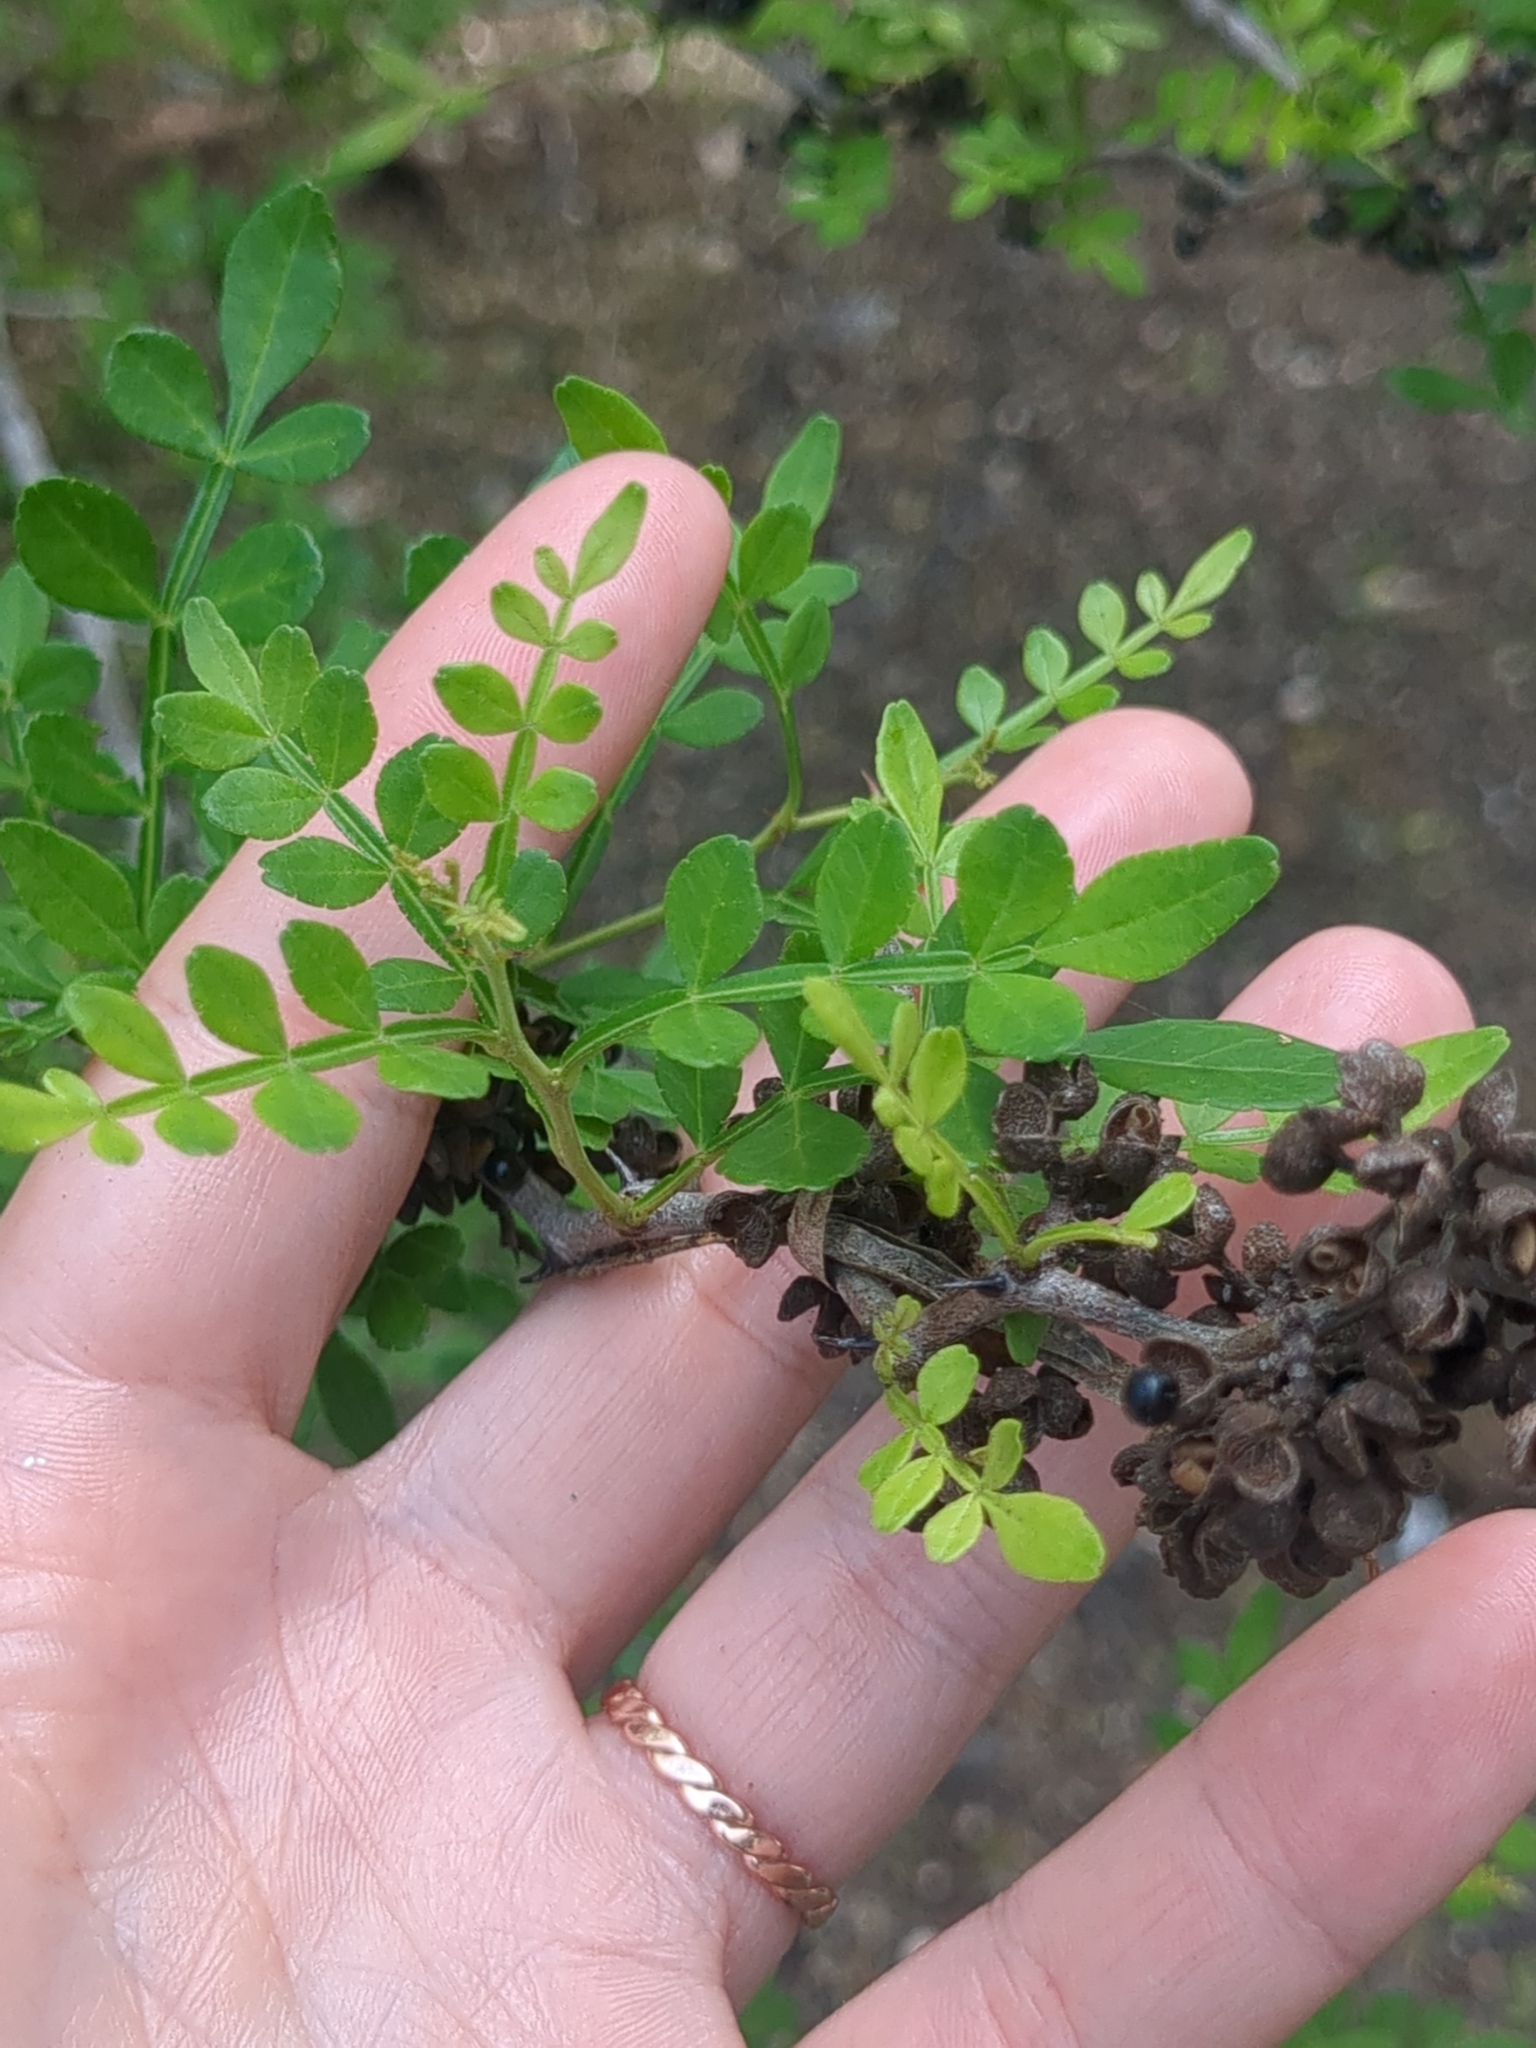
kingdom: Plantae
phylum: Tracheophyta
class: Magnoliopsida
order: Sapindales
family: Rutaceae
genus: Zanthoxylum
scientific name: Zanthoxylum fagara
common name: Lime prickly-ash
